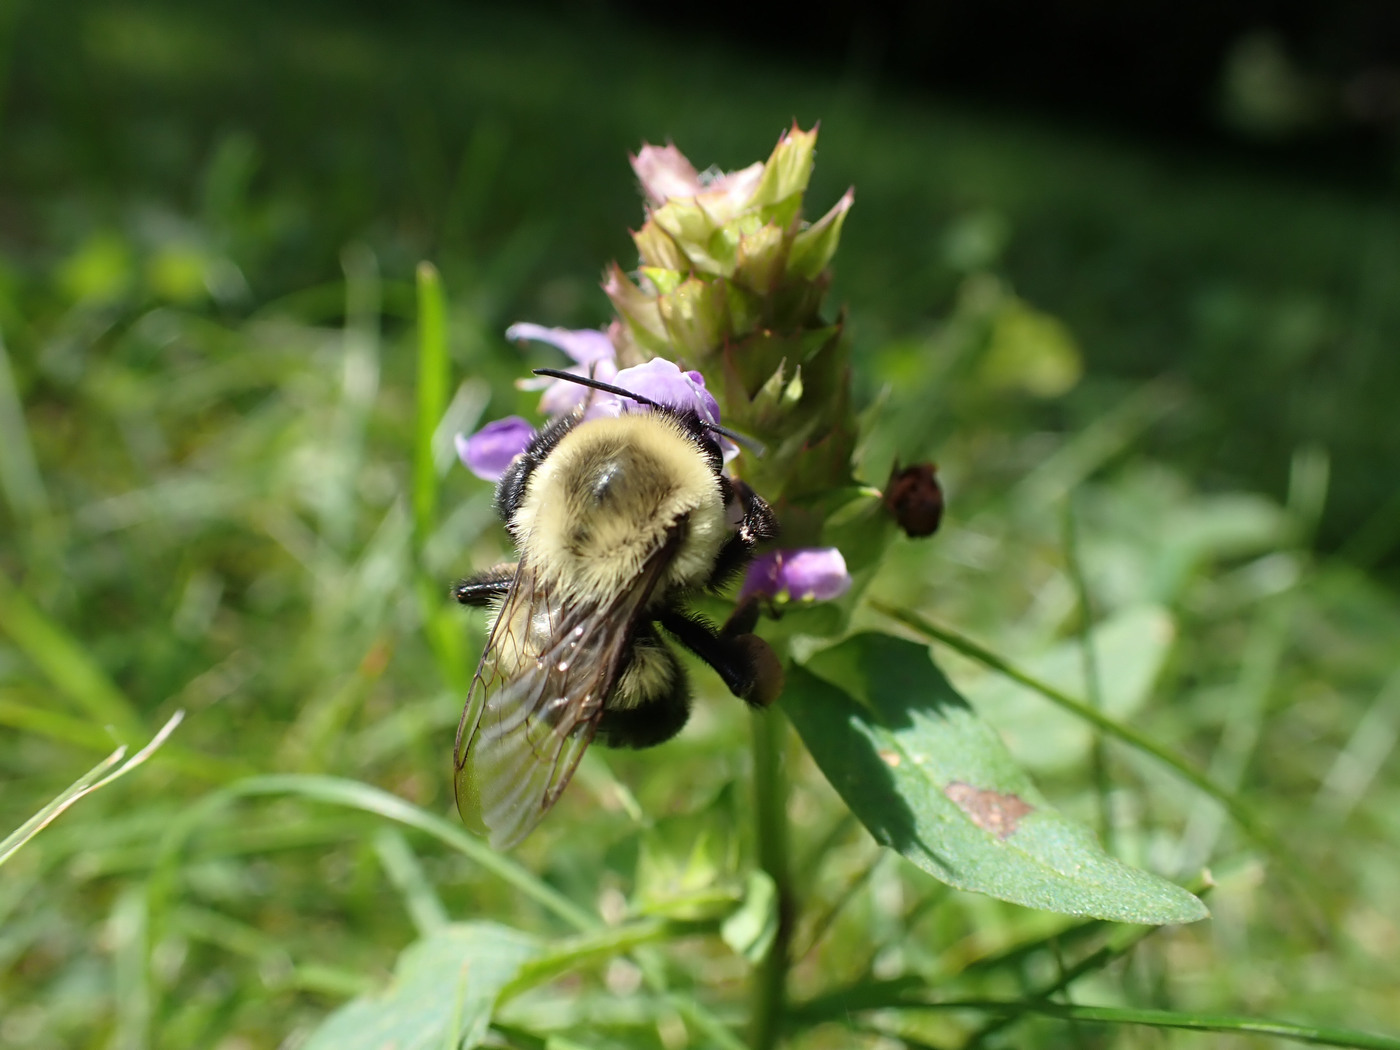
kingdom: Animalia
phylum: Arthropoda
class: Insecta
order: Hymenoptera
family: Apidae
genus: Bombus
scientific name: Bombus impatiens
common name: Common eastern bumble bee
